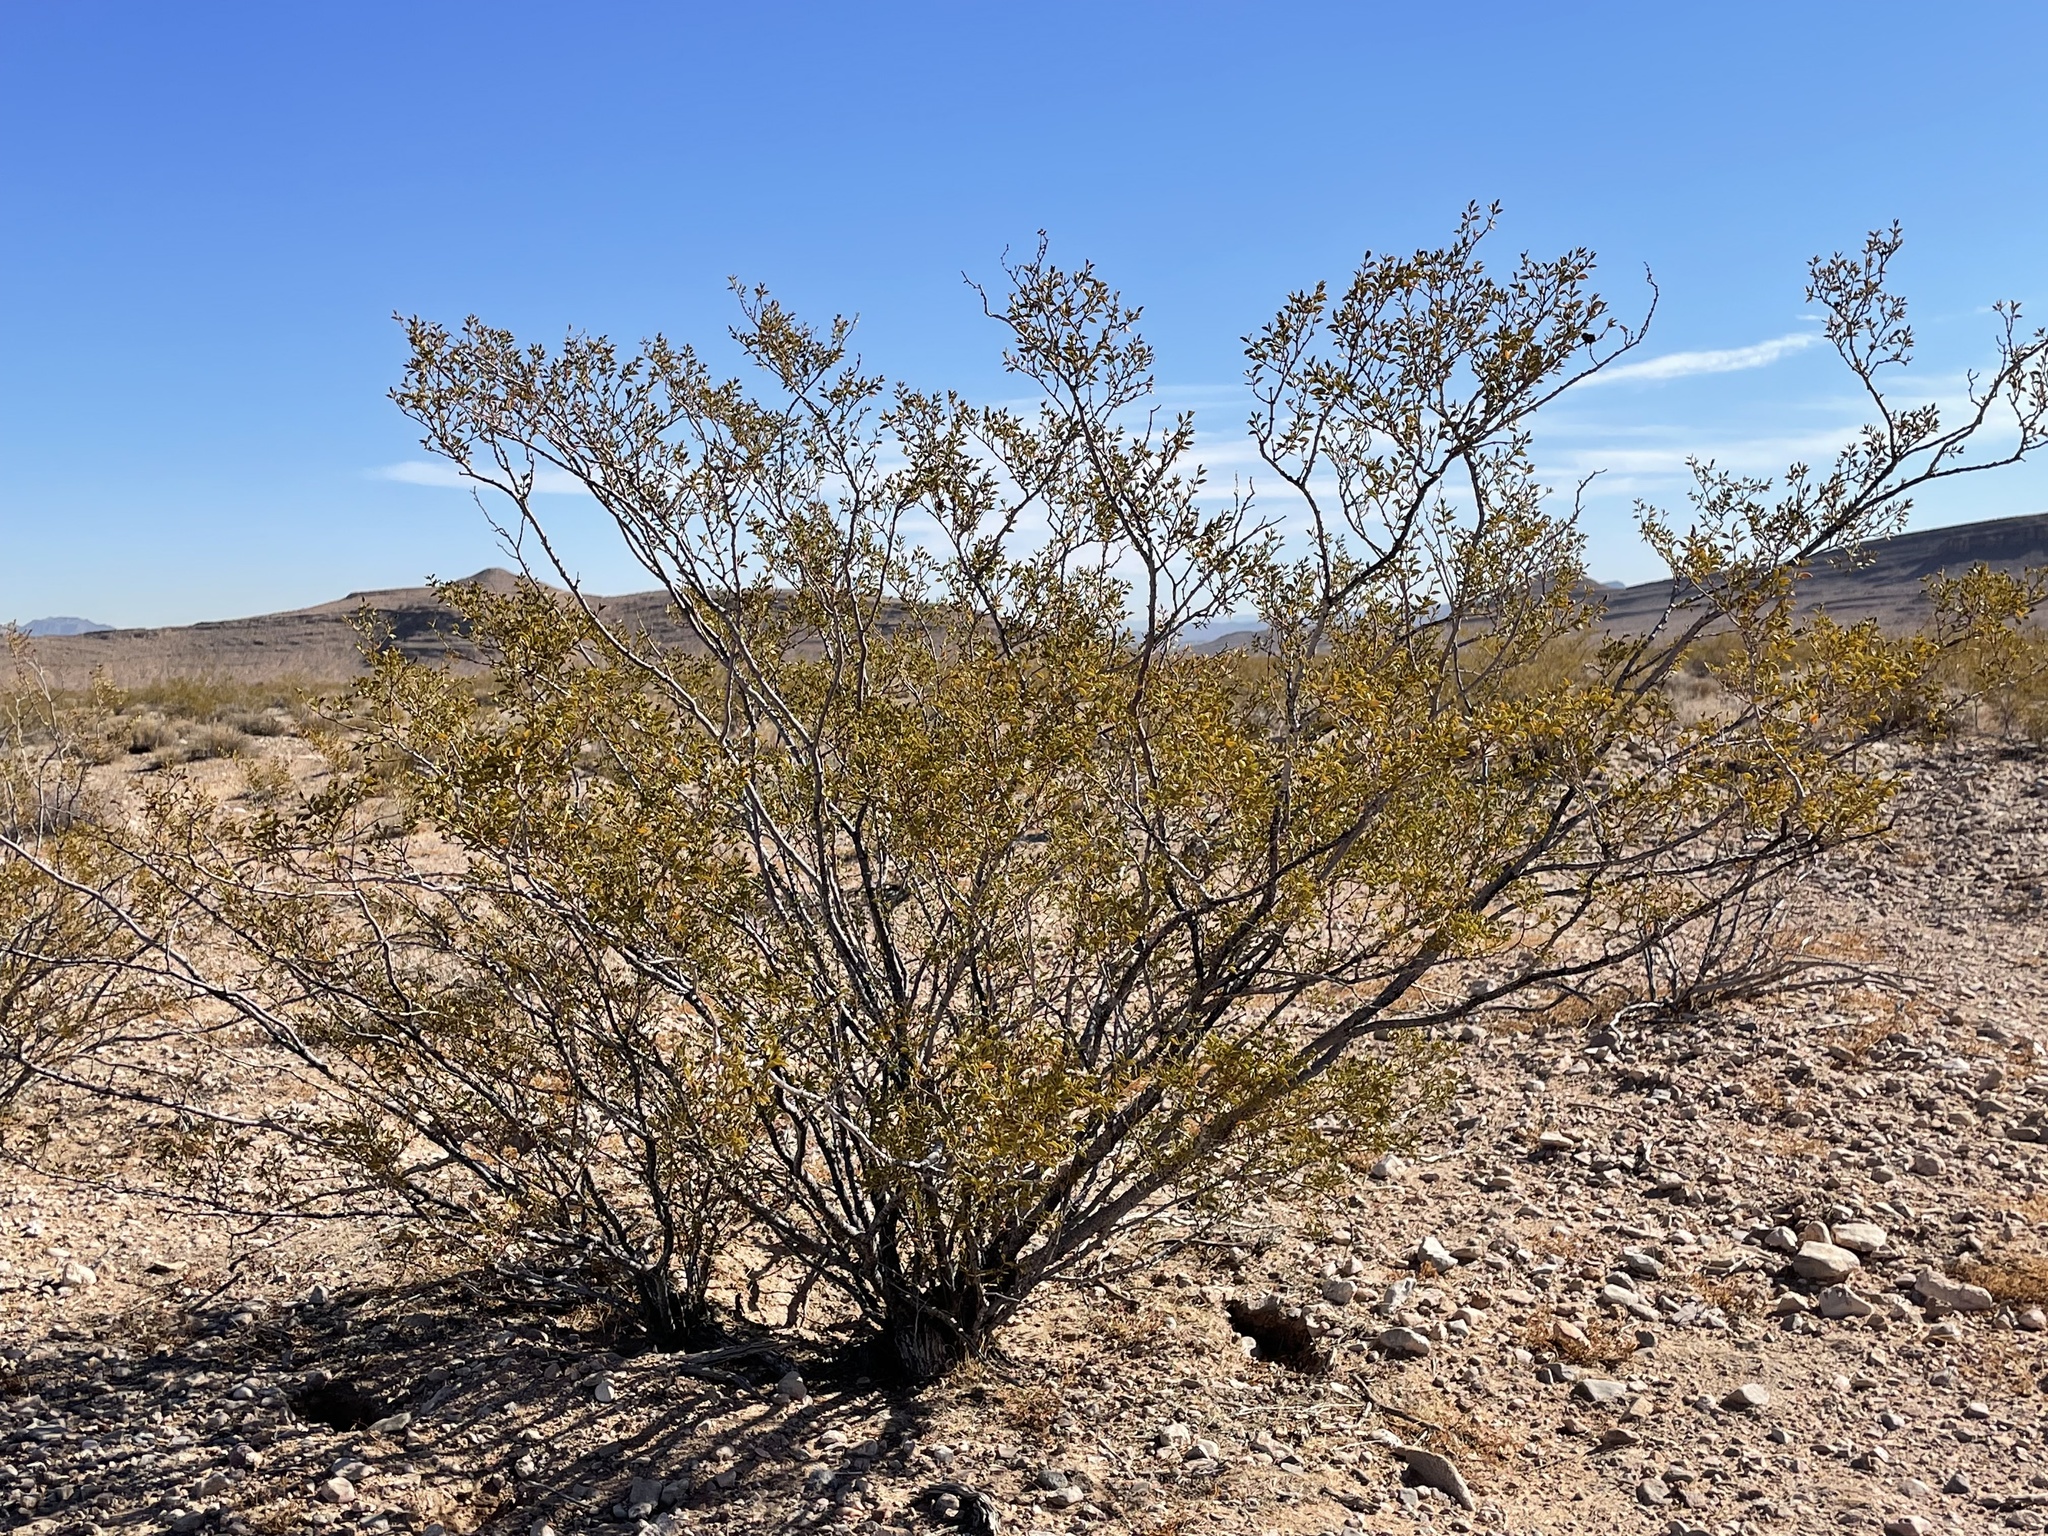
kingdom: Plantae
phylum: Tracheophyta
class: Magnoliopsida
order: Zygophyllales
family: Zygophyllaceae
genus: Larrea
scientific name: Larrea tridentata
